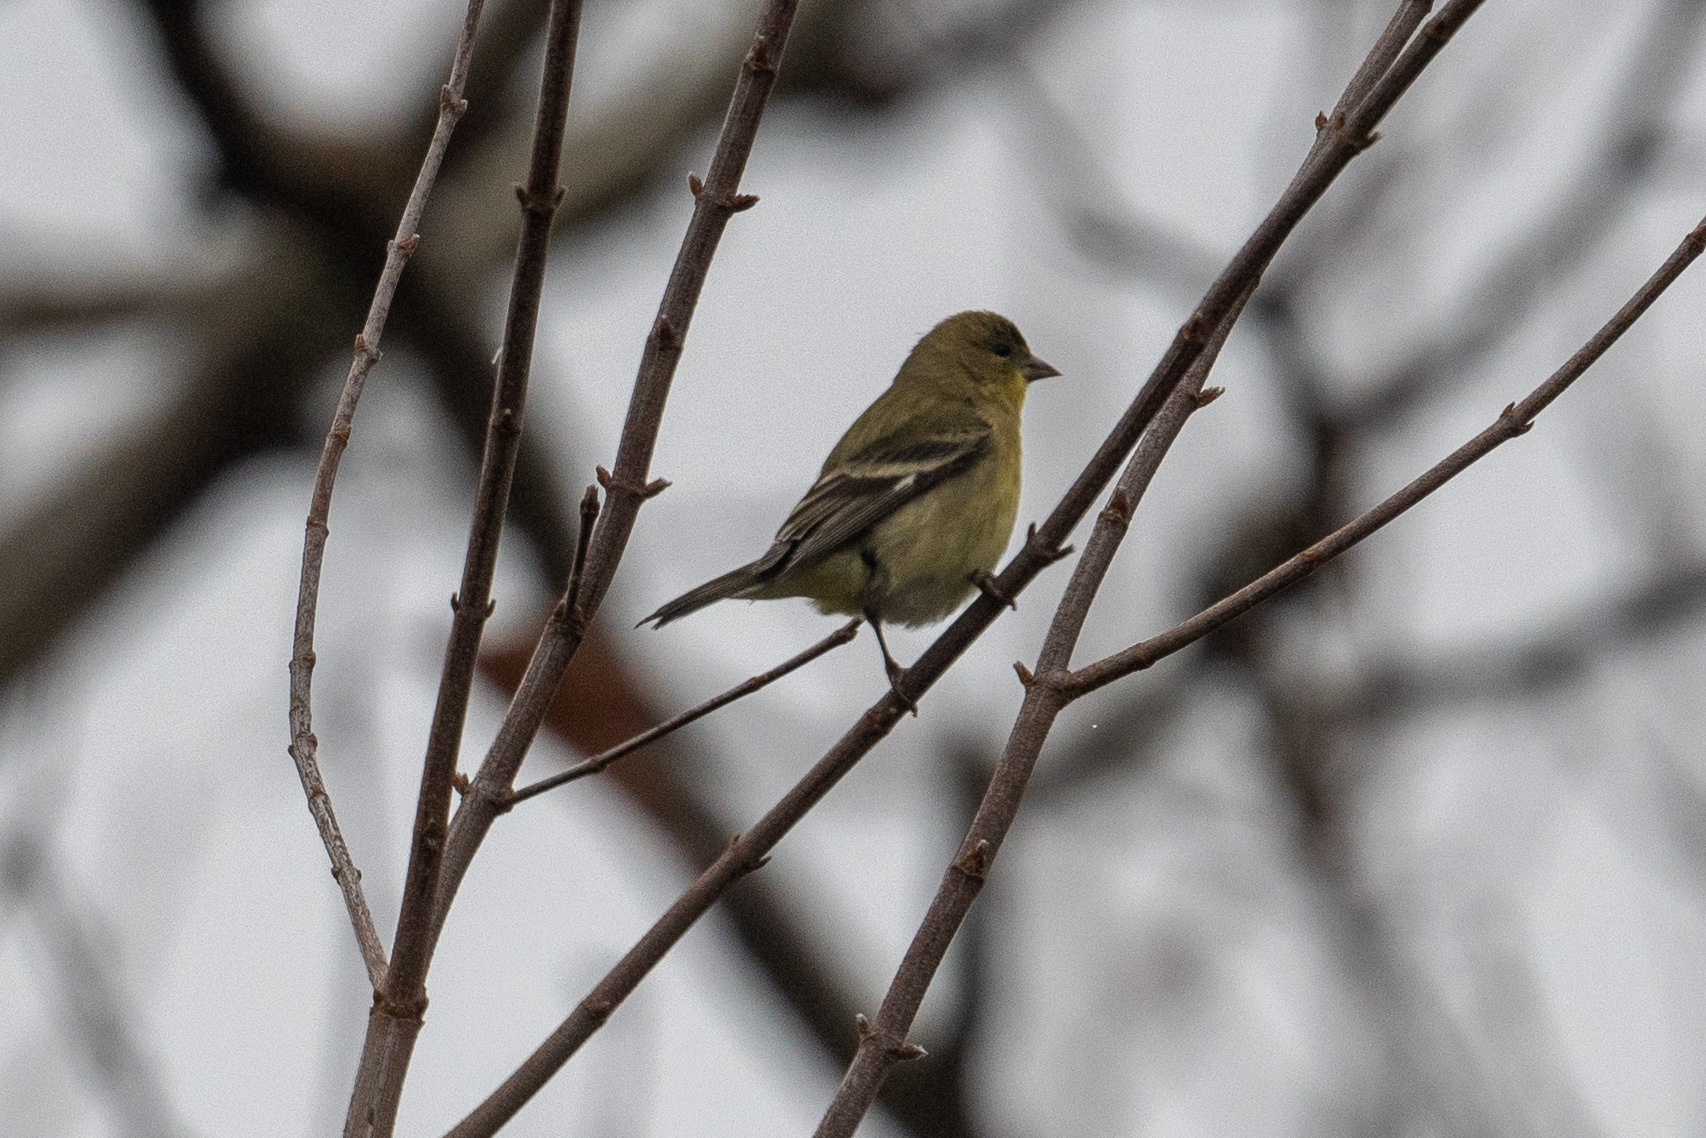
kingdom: Animalia
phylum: Chordata
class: Aves
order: Passeriformes
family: Fringillidae
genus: Spinus
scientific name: Spinus psaltria
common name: Lesser goldfinch
